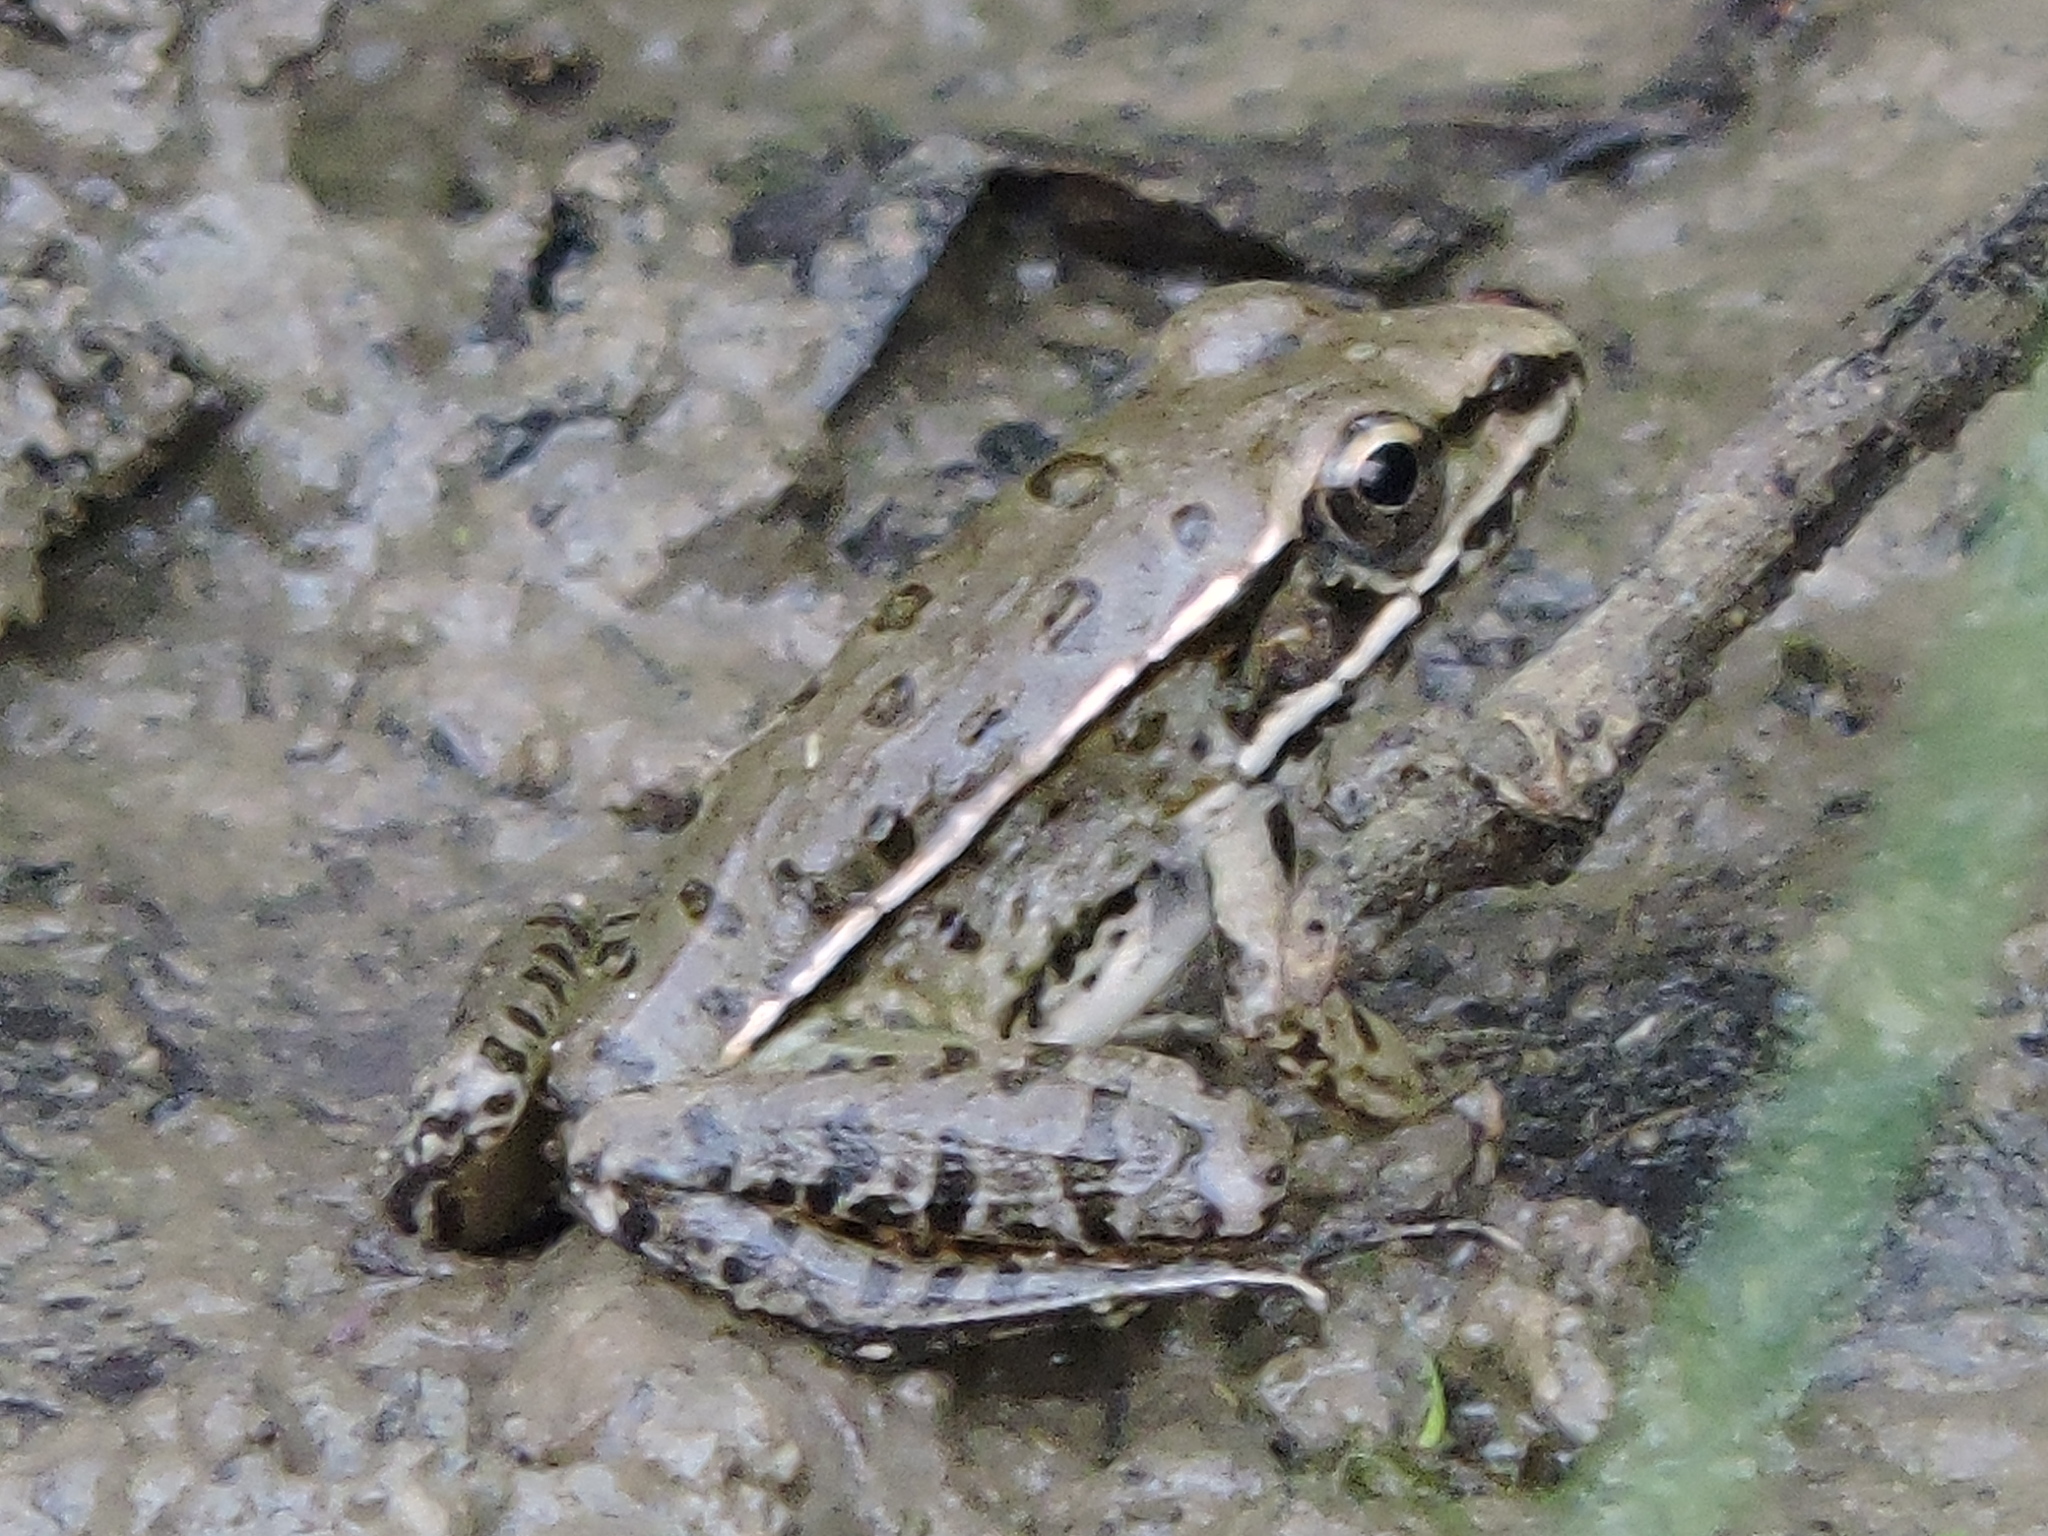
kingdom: Animalia
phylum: Chordata
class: Amphibia
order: Anura
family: Ranidae
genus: Lithobates
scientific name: Lithobates sphenocephalus
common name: Southern leopard frog
